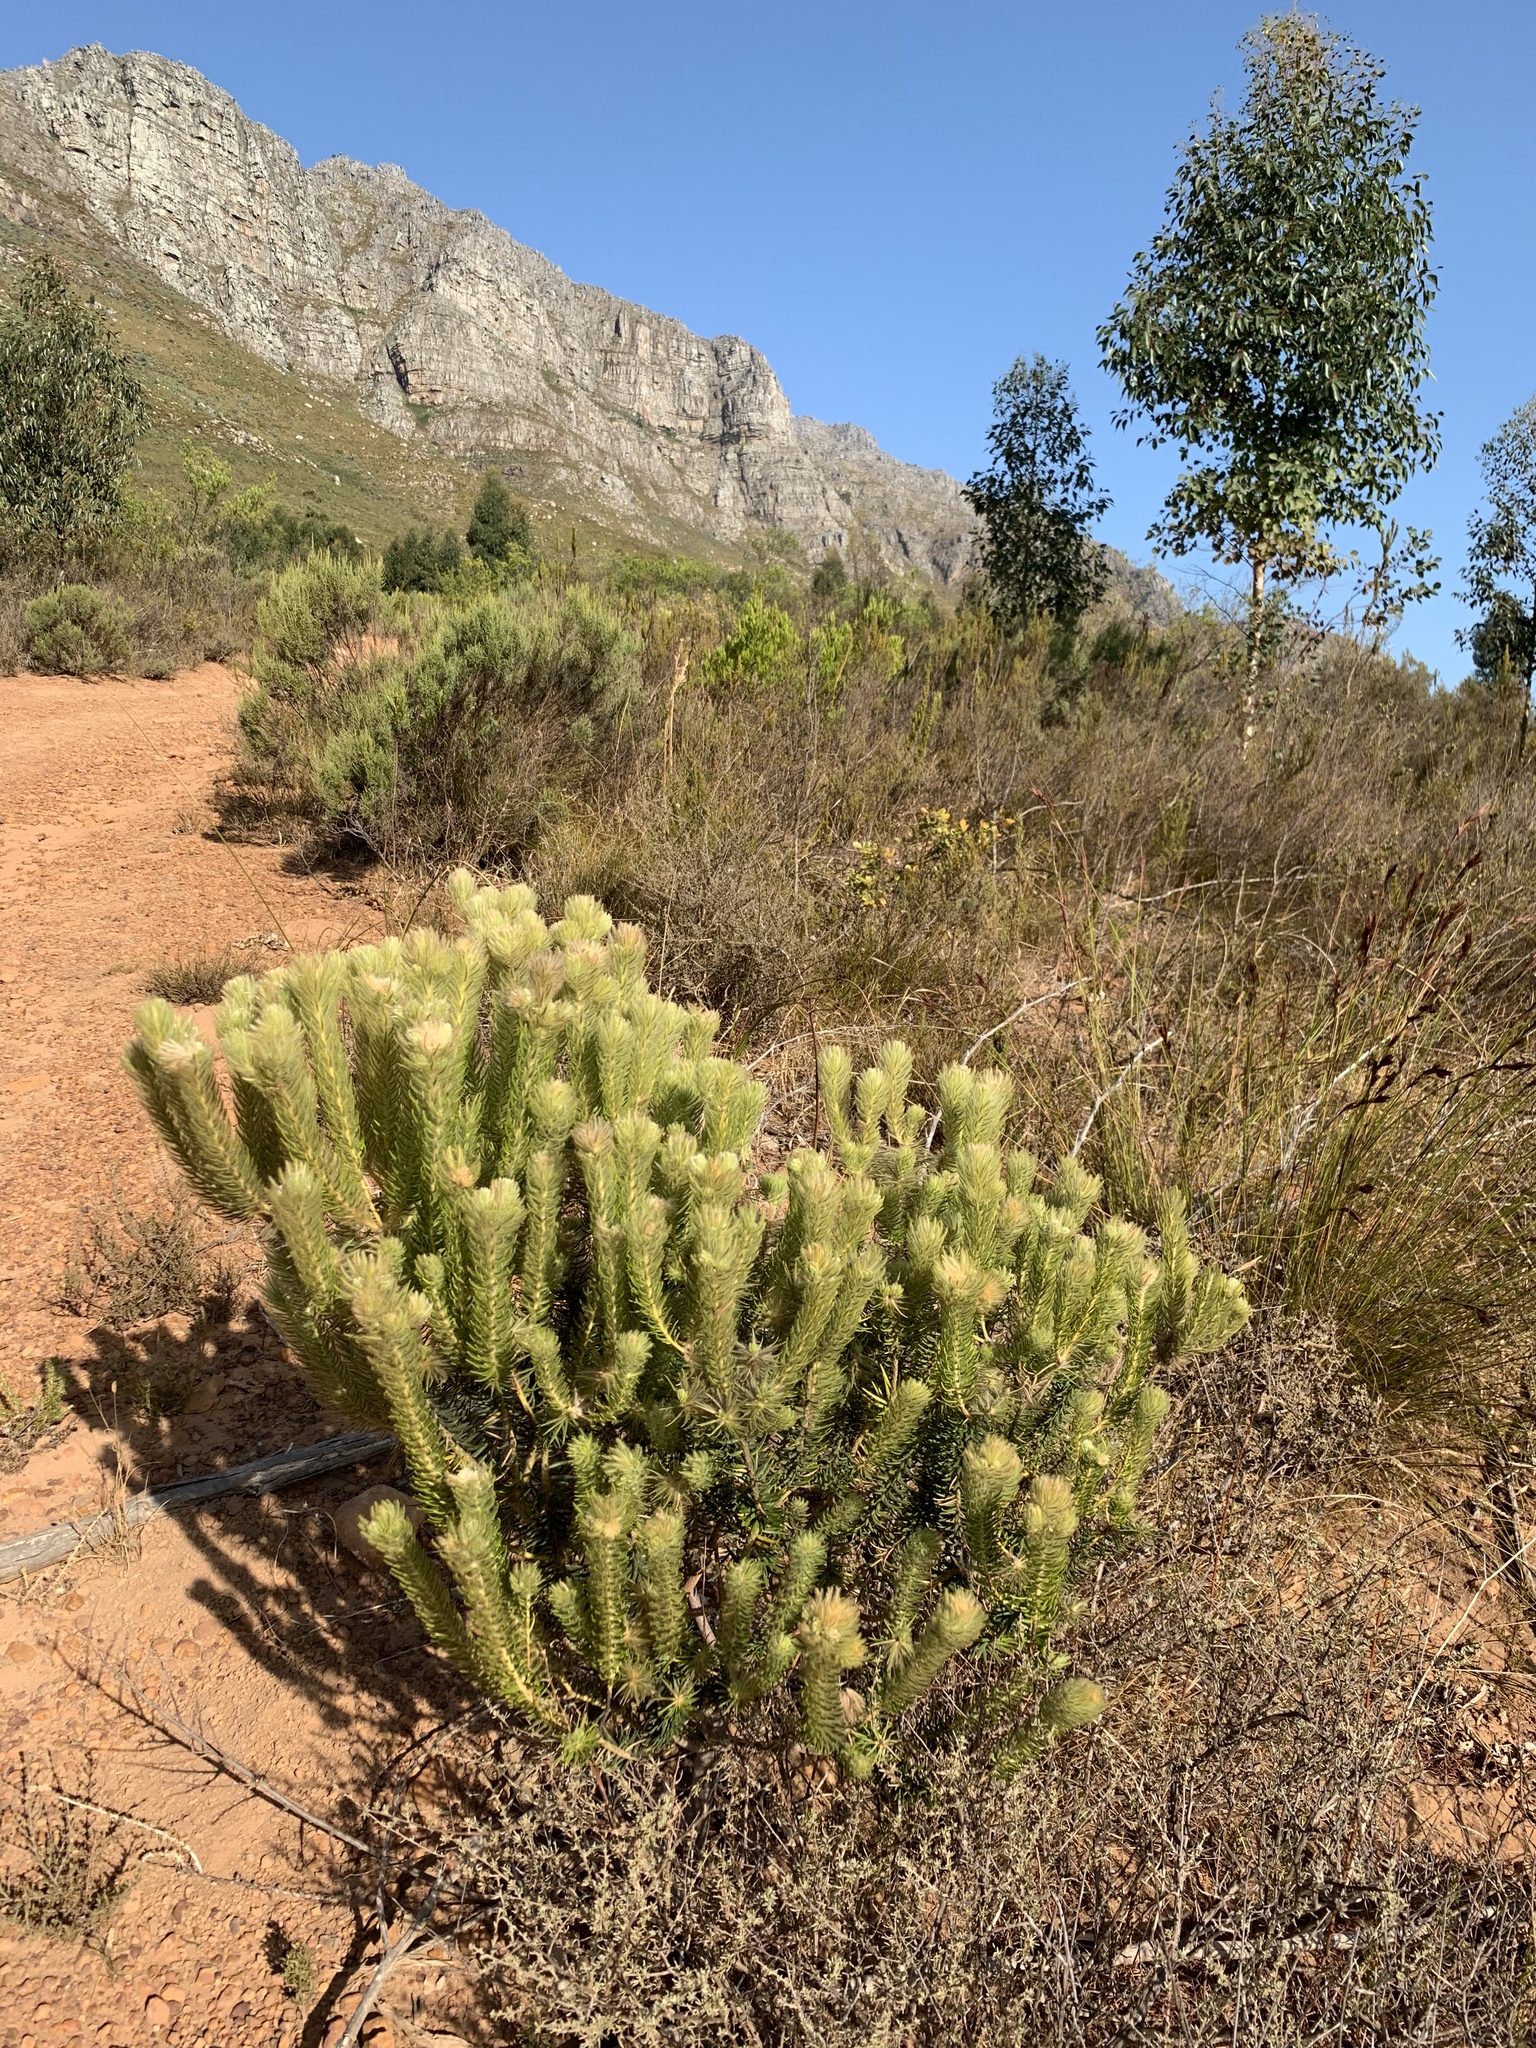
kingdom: Plantae
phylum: Tracheophyta
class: Magnoliopsida
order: Rosales
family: Rhamnaceae
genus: Phylica
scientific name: Phylica pubescens
